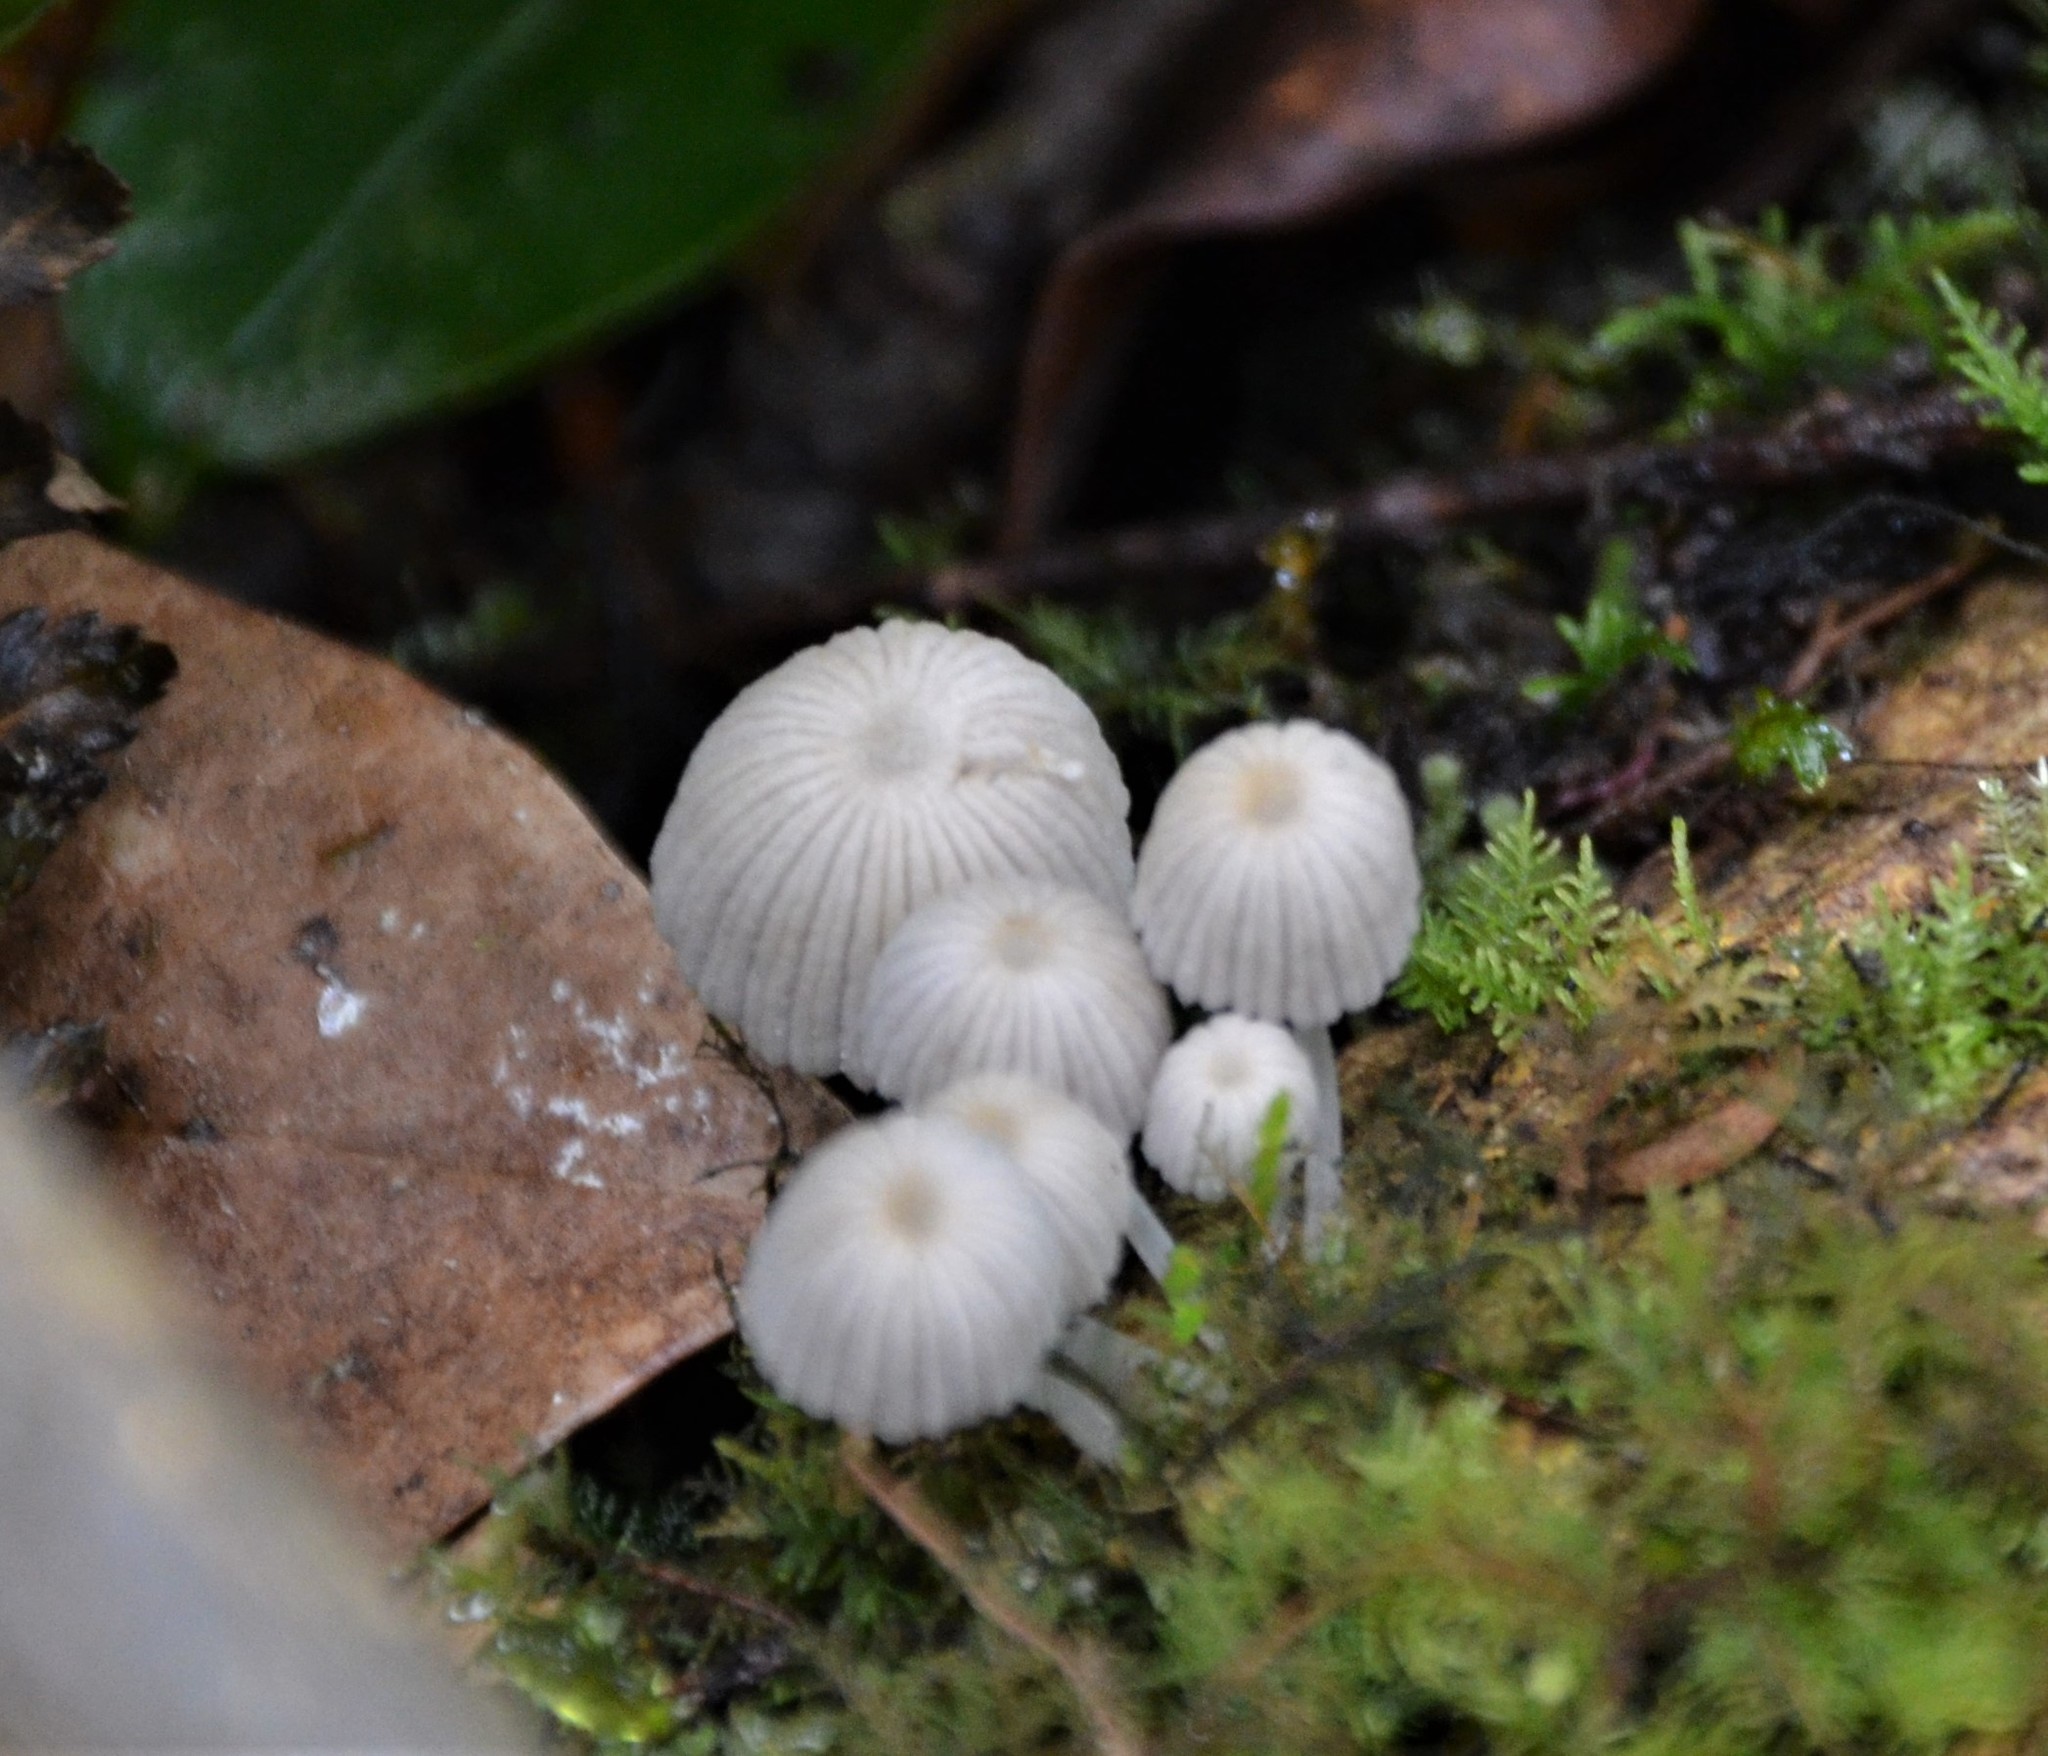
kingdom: Fungi
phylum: Basidiomycota
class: Agaricomycetes
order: Agaricales
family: Psathyrellaceae
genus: Coprinellus
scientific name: Coprinellus disseminatus
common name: Fairies' bonnets
